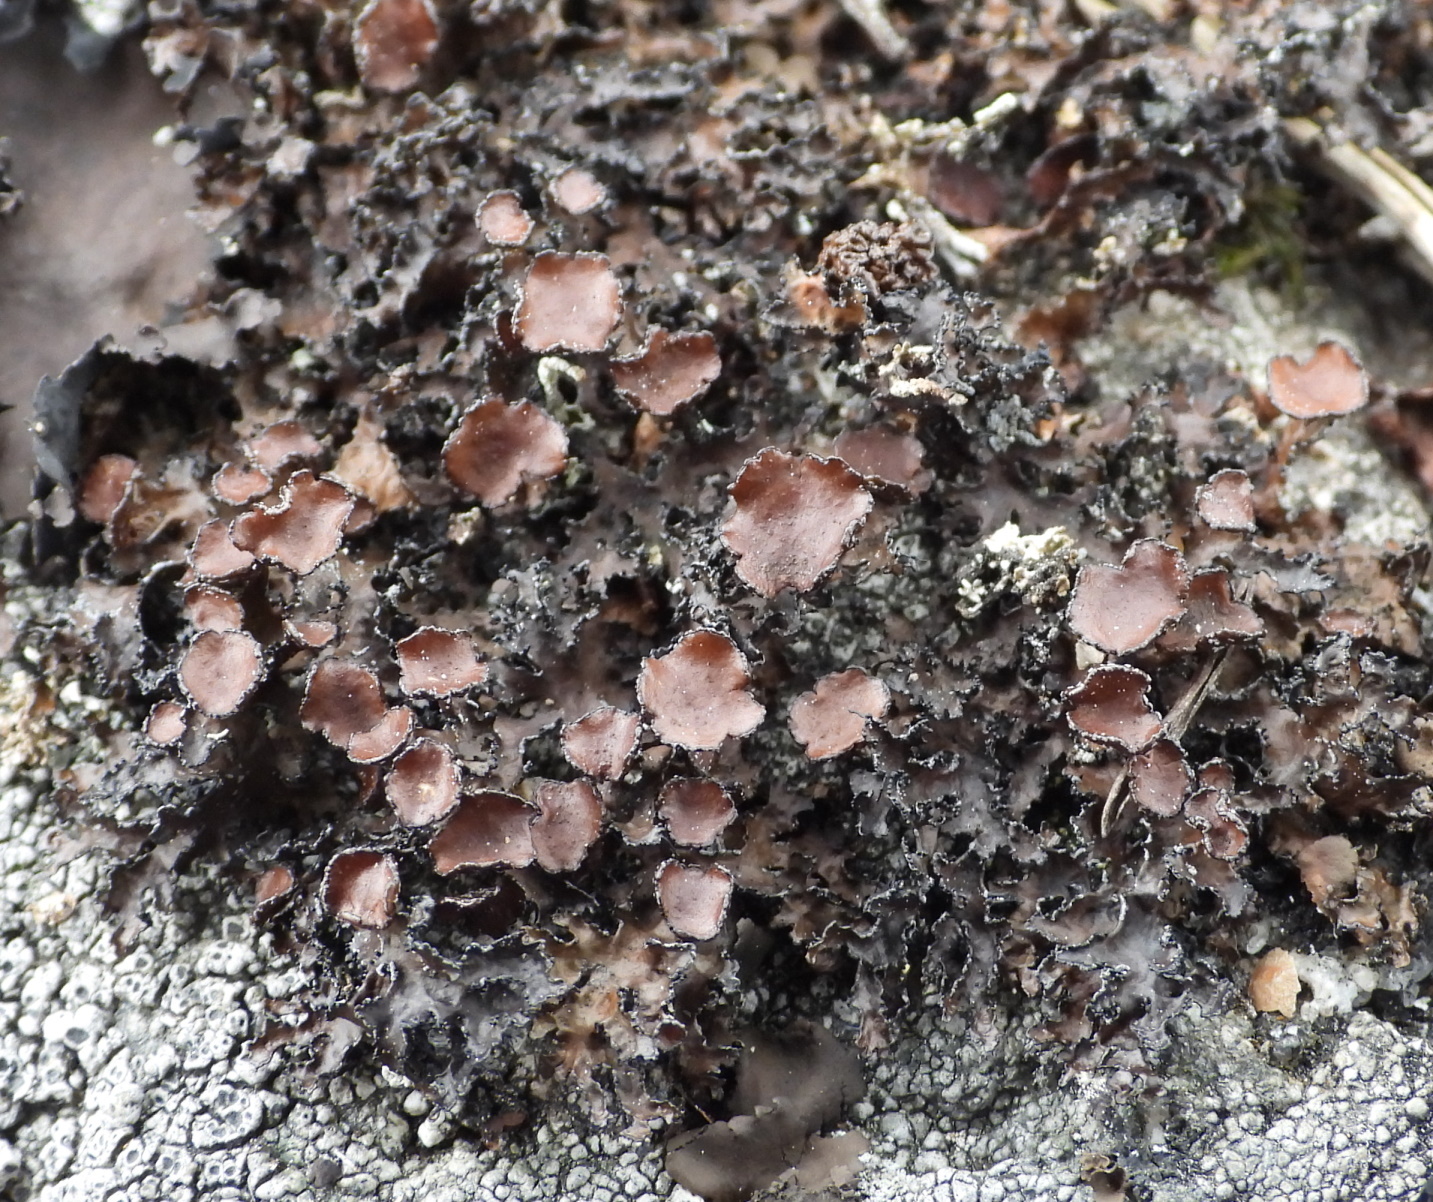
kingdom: Fungi
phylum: Ascomycota
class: Lecanoromycetes
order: Lecanorales
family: Parmeliaceae
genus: Melanelia
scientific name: Melanelia commixta
